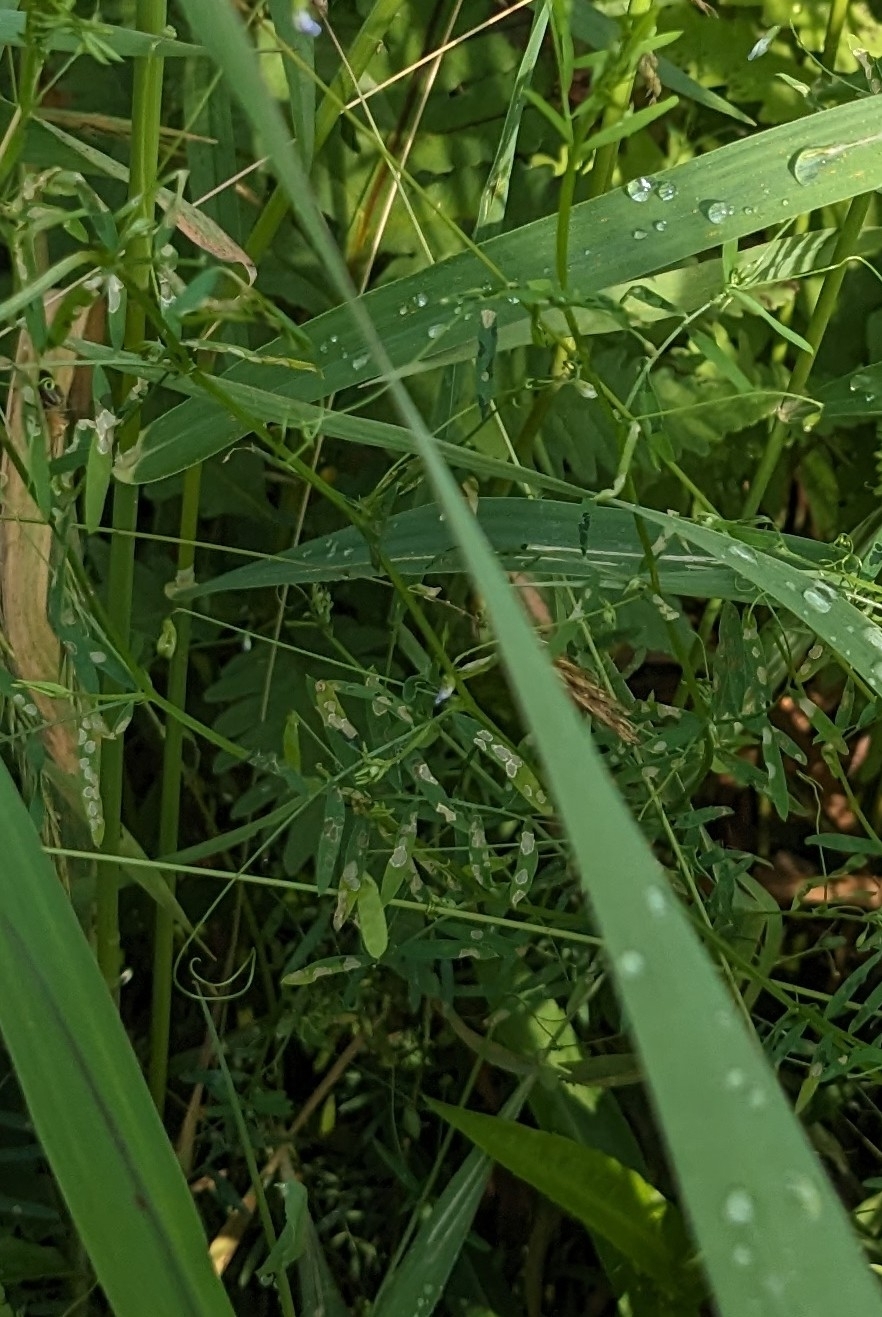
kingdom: Plantae
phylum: Tracheophyta
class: Magnoliopsida
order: Fabales
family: Fabaceae
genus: Vicia
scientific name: Vicia tetrasperma
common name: Smooth tare
